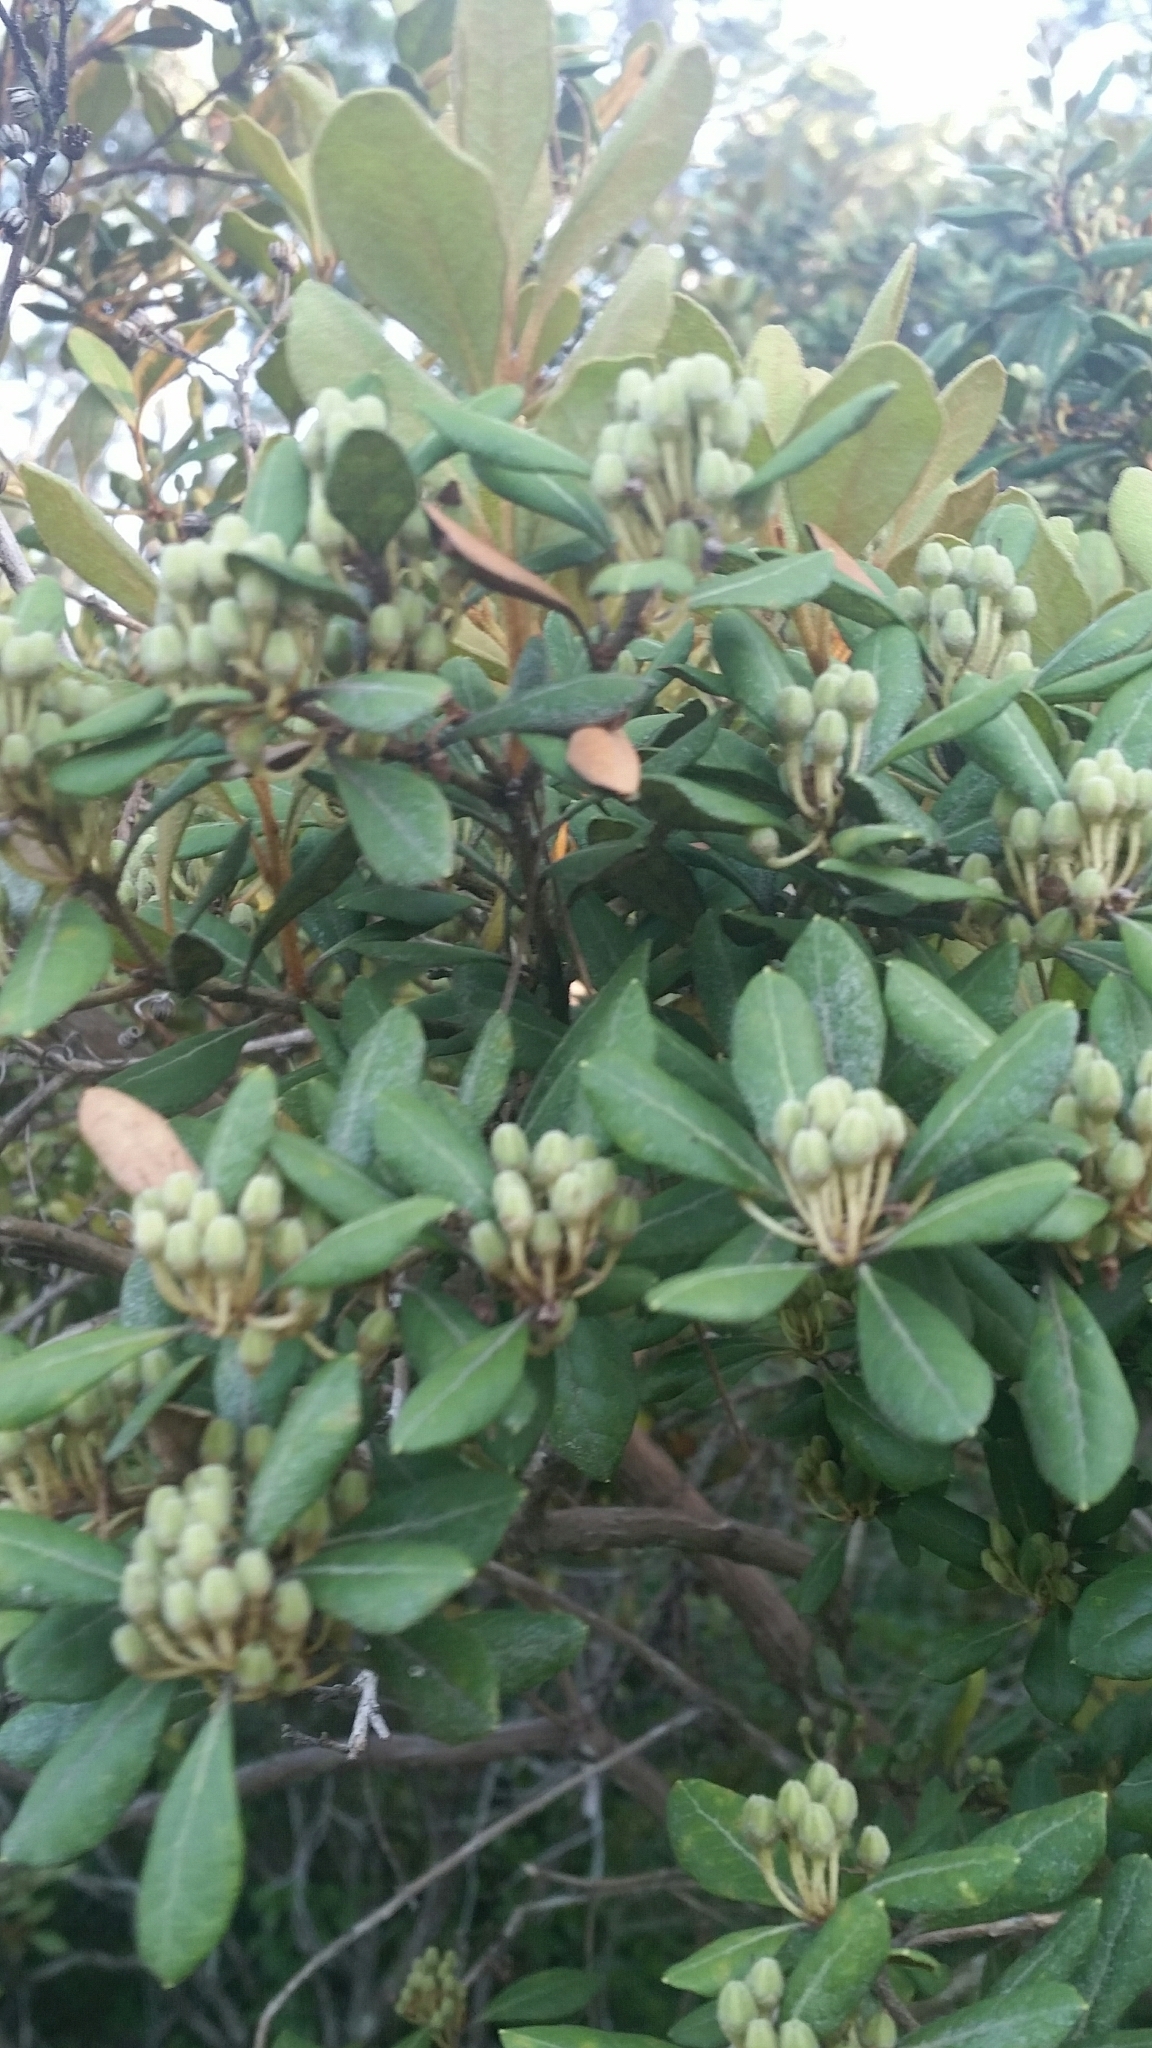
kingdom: Plantae
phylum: Tracheophyta
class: Magnoliopsida
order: Ericales
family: Ericaceae
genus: Lyonia
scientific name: Lyonia ferruginea
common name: Rusty lyonia
